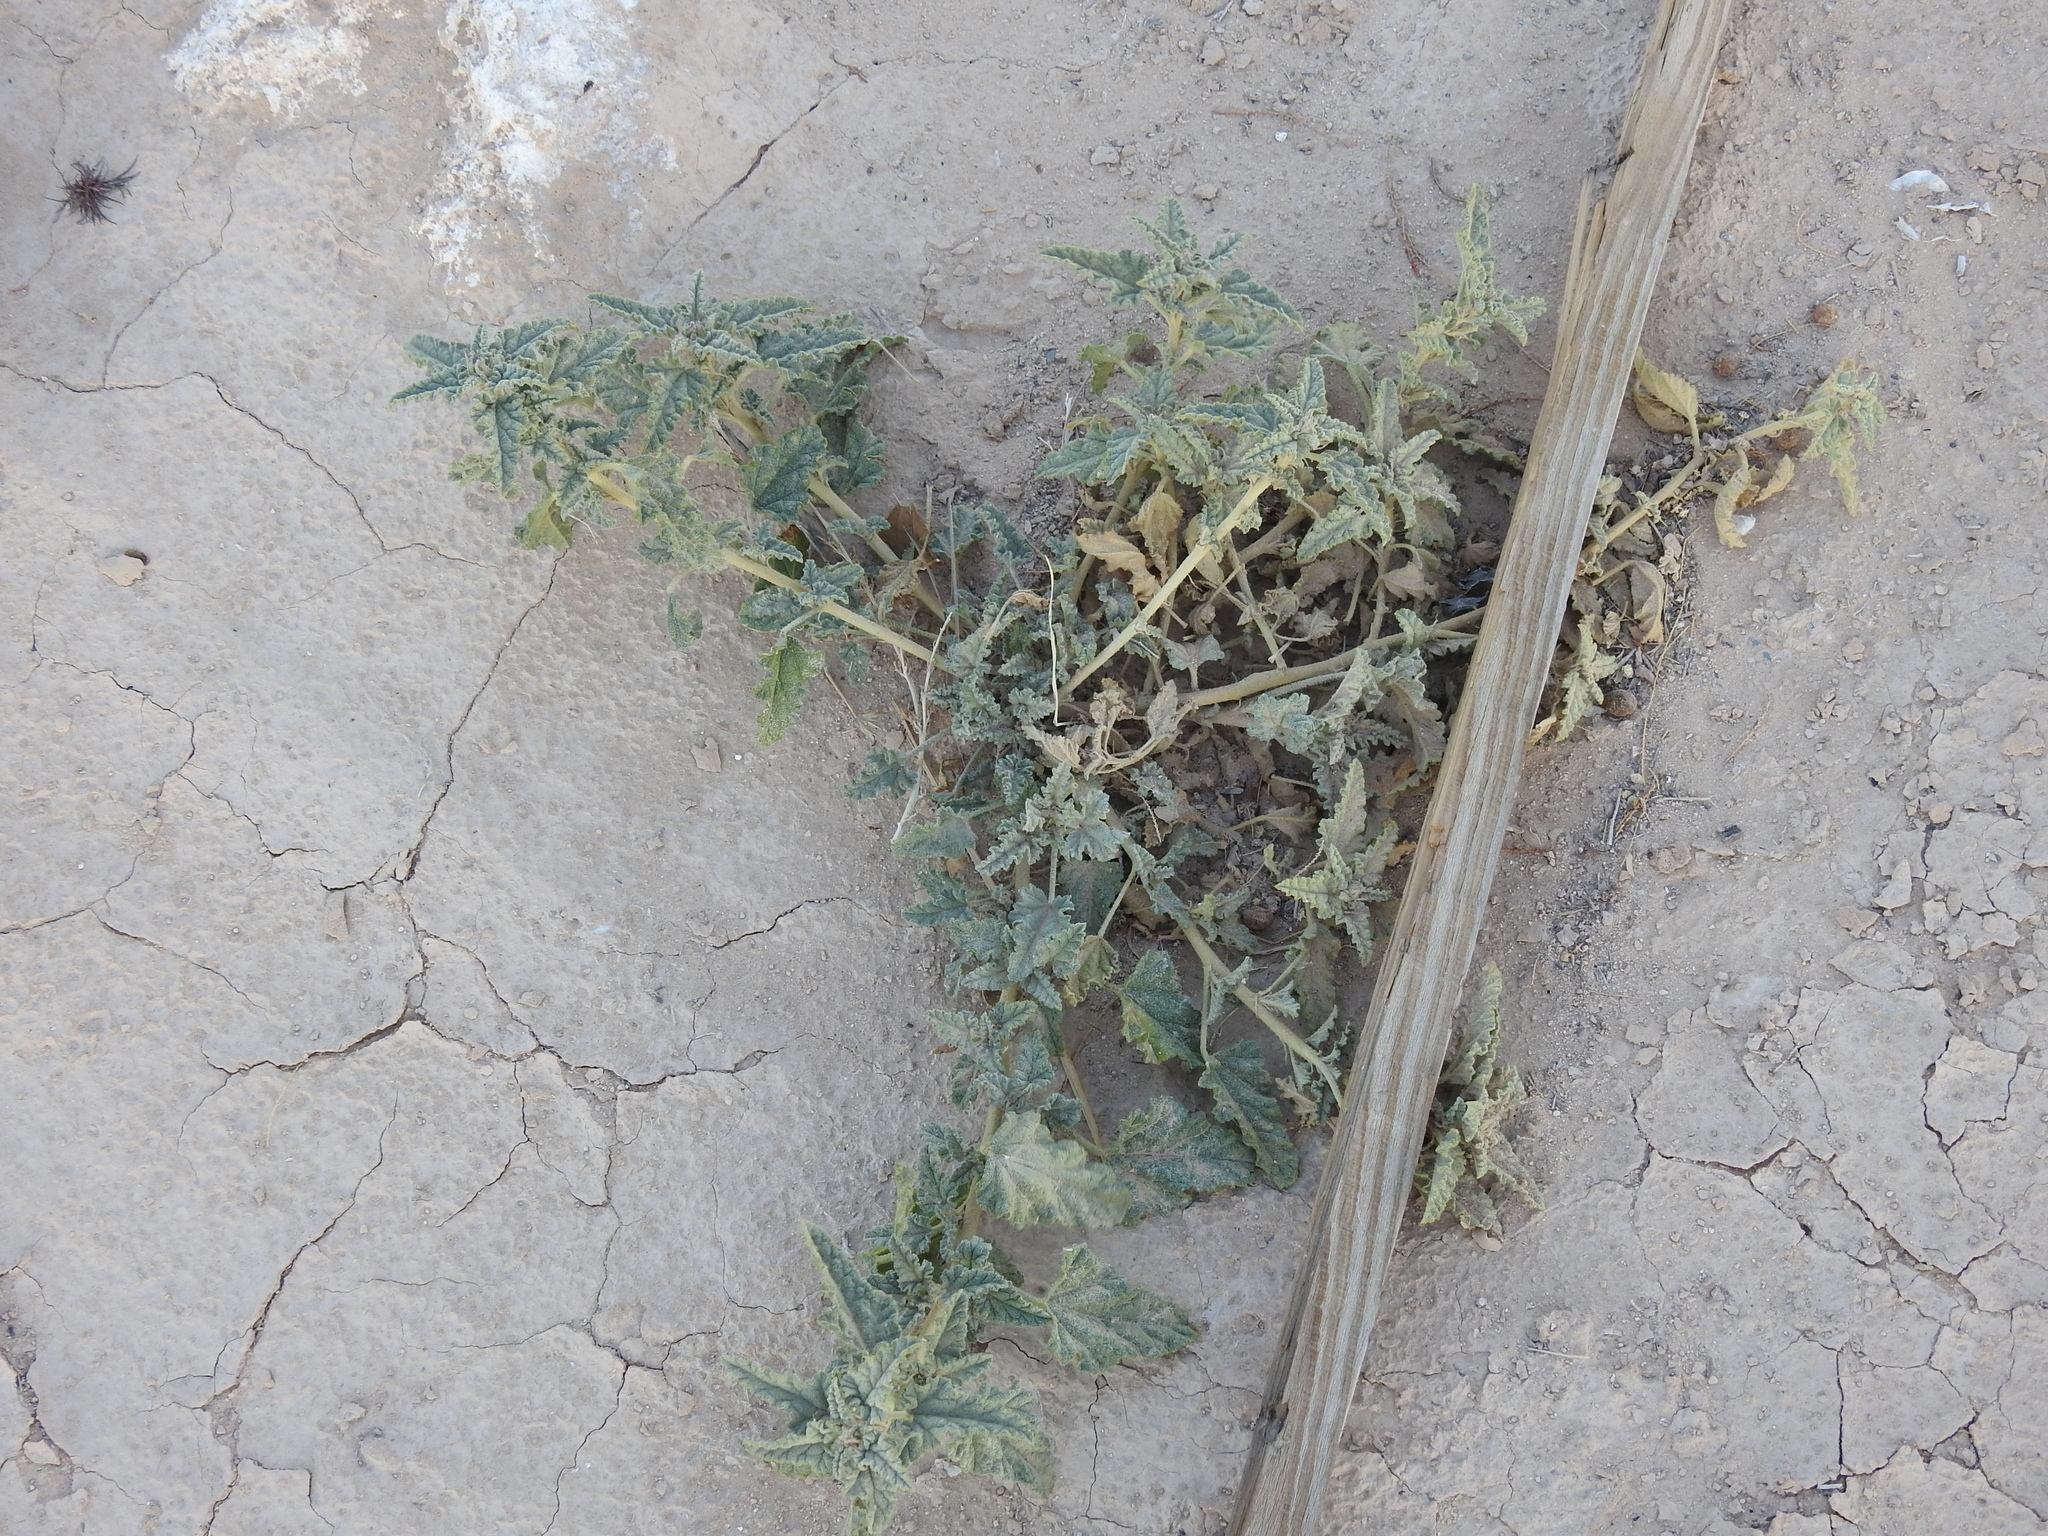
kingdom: Plantae
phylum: Tracheophyta
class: Magnoliopsida
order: Malvales
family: Malvaceae
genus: Sphaeralcea
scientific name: Sphaeralcea ambigua
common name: Apricot globe-mallow
